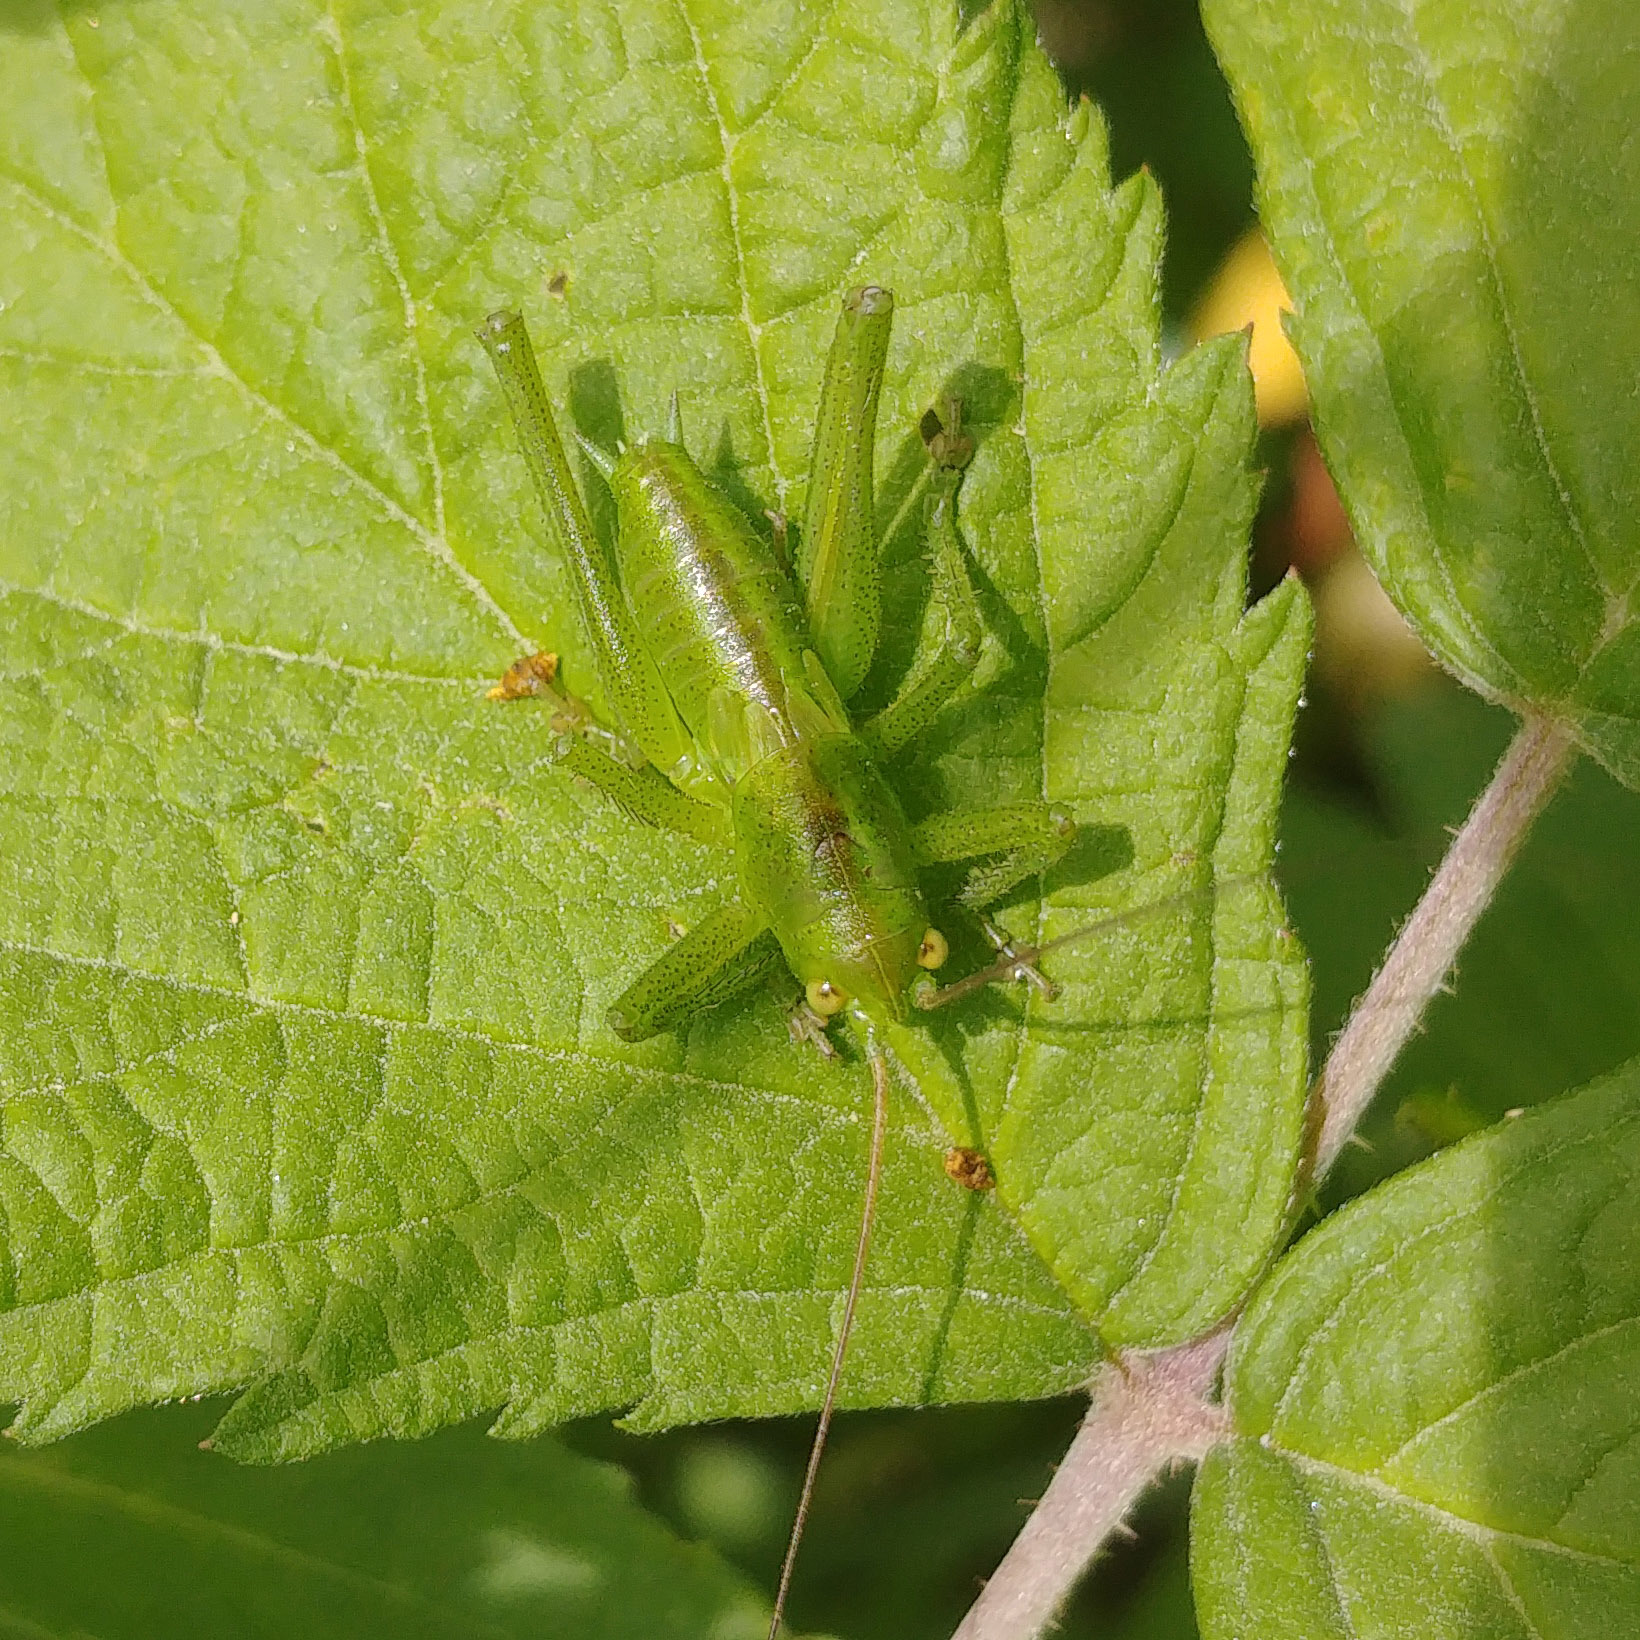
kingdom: Animalia
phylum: Arthropoda
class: Insecta
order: Orthoptera
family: Tettigoniidae
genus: Tettigonia
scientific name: Tettigonia cantans
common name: Upland green bush-cricket
